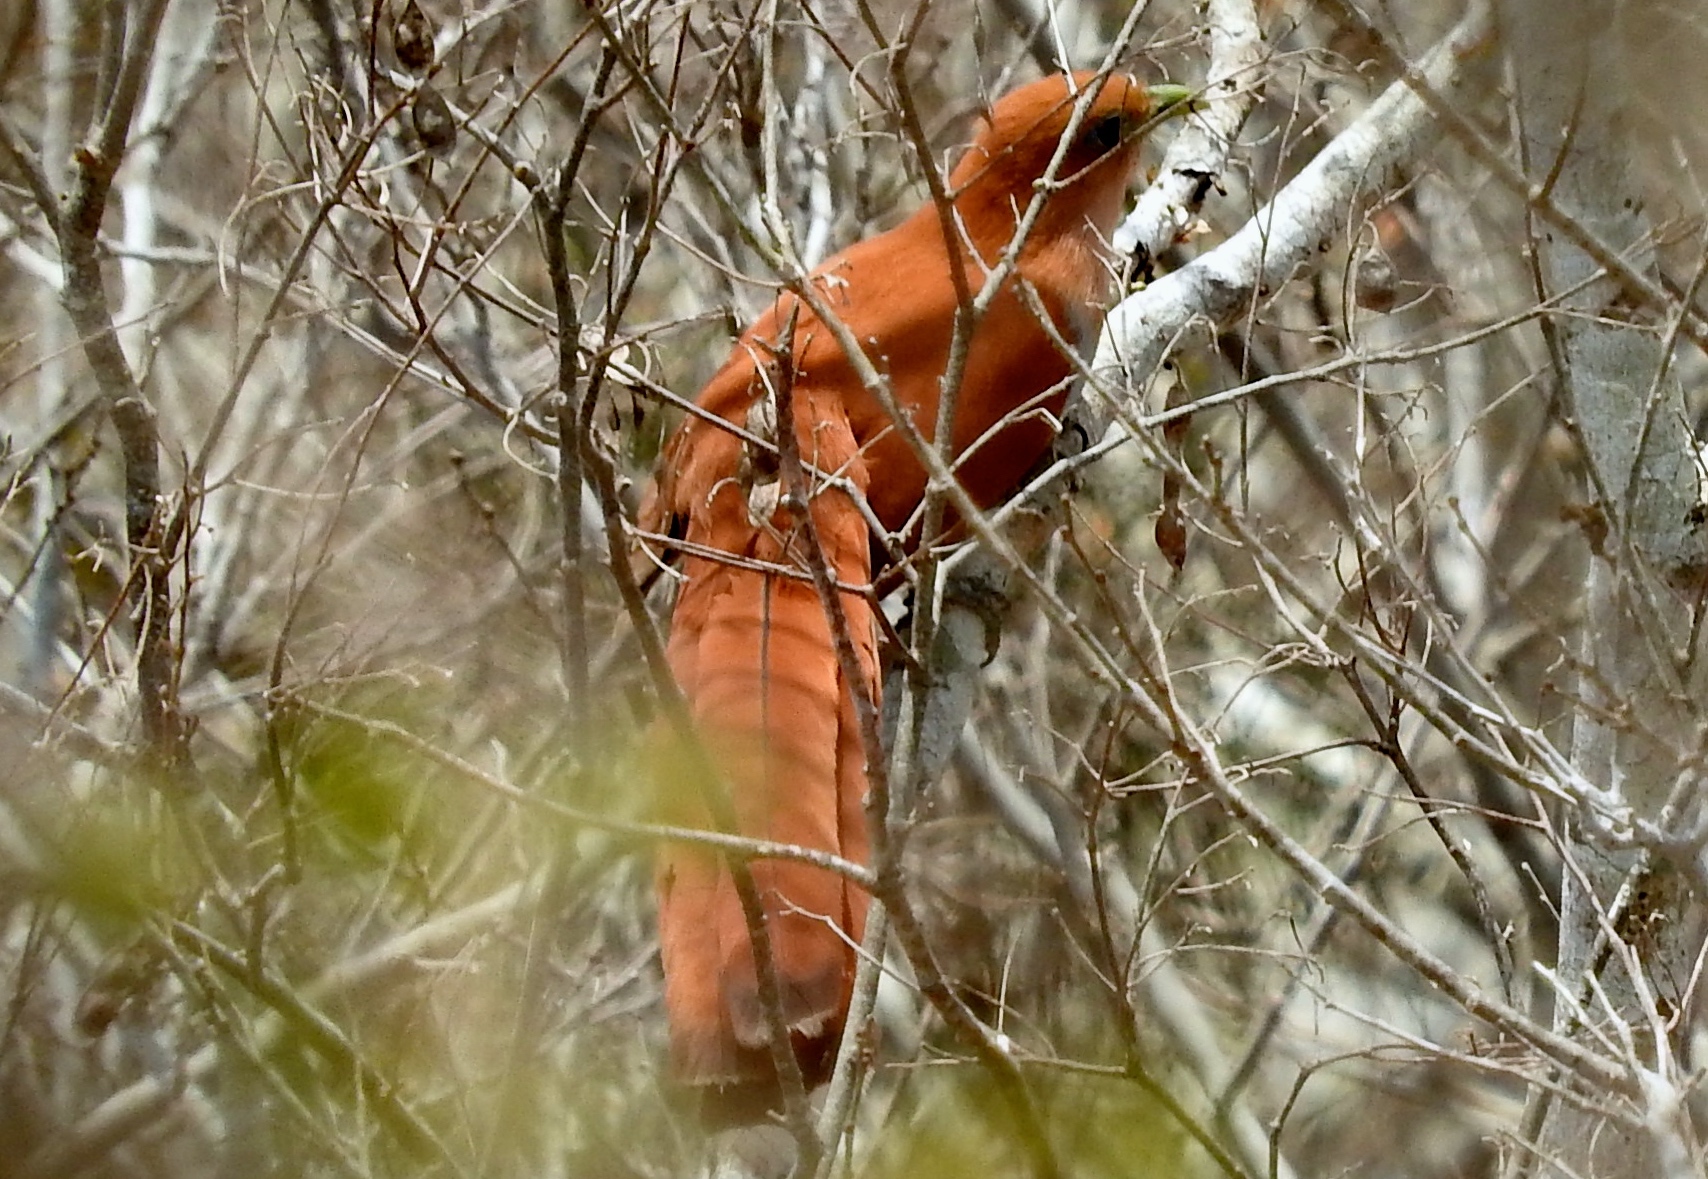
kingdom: Animalia
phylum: Chordata
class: Aves
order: Cuculiformes
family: Cuculidae
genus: Piaya
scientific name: Piaya cayana
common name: Squirrel cuckoo
